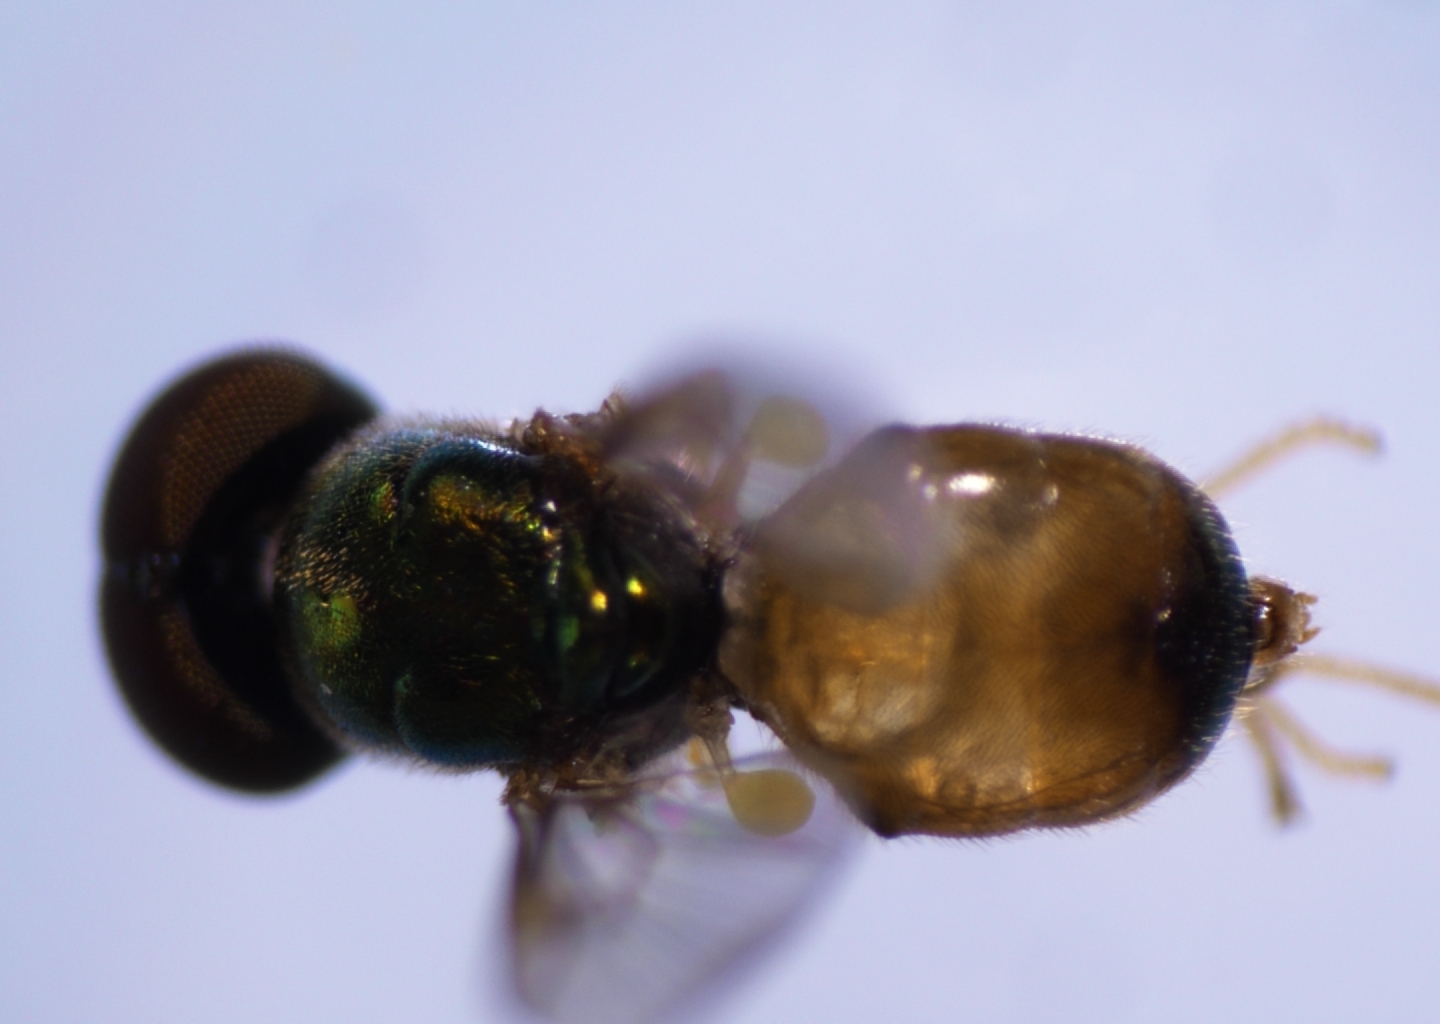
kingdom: Animalia
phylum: Arthropoda
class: Insecta
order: Diptera
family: Stratiomyidae
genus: Microchrysa
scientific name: Microchrysa flaviventris
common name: Soldier fly
